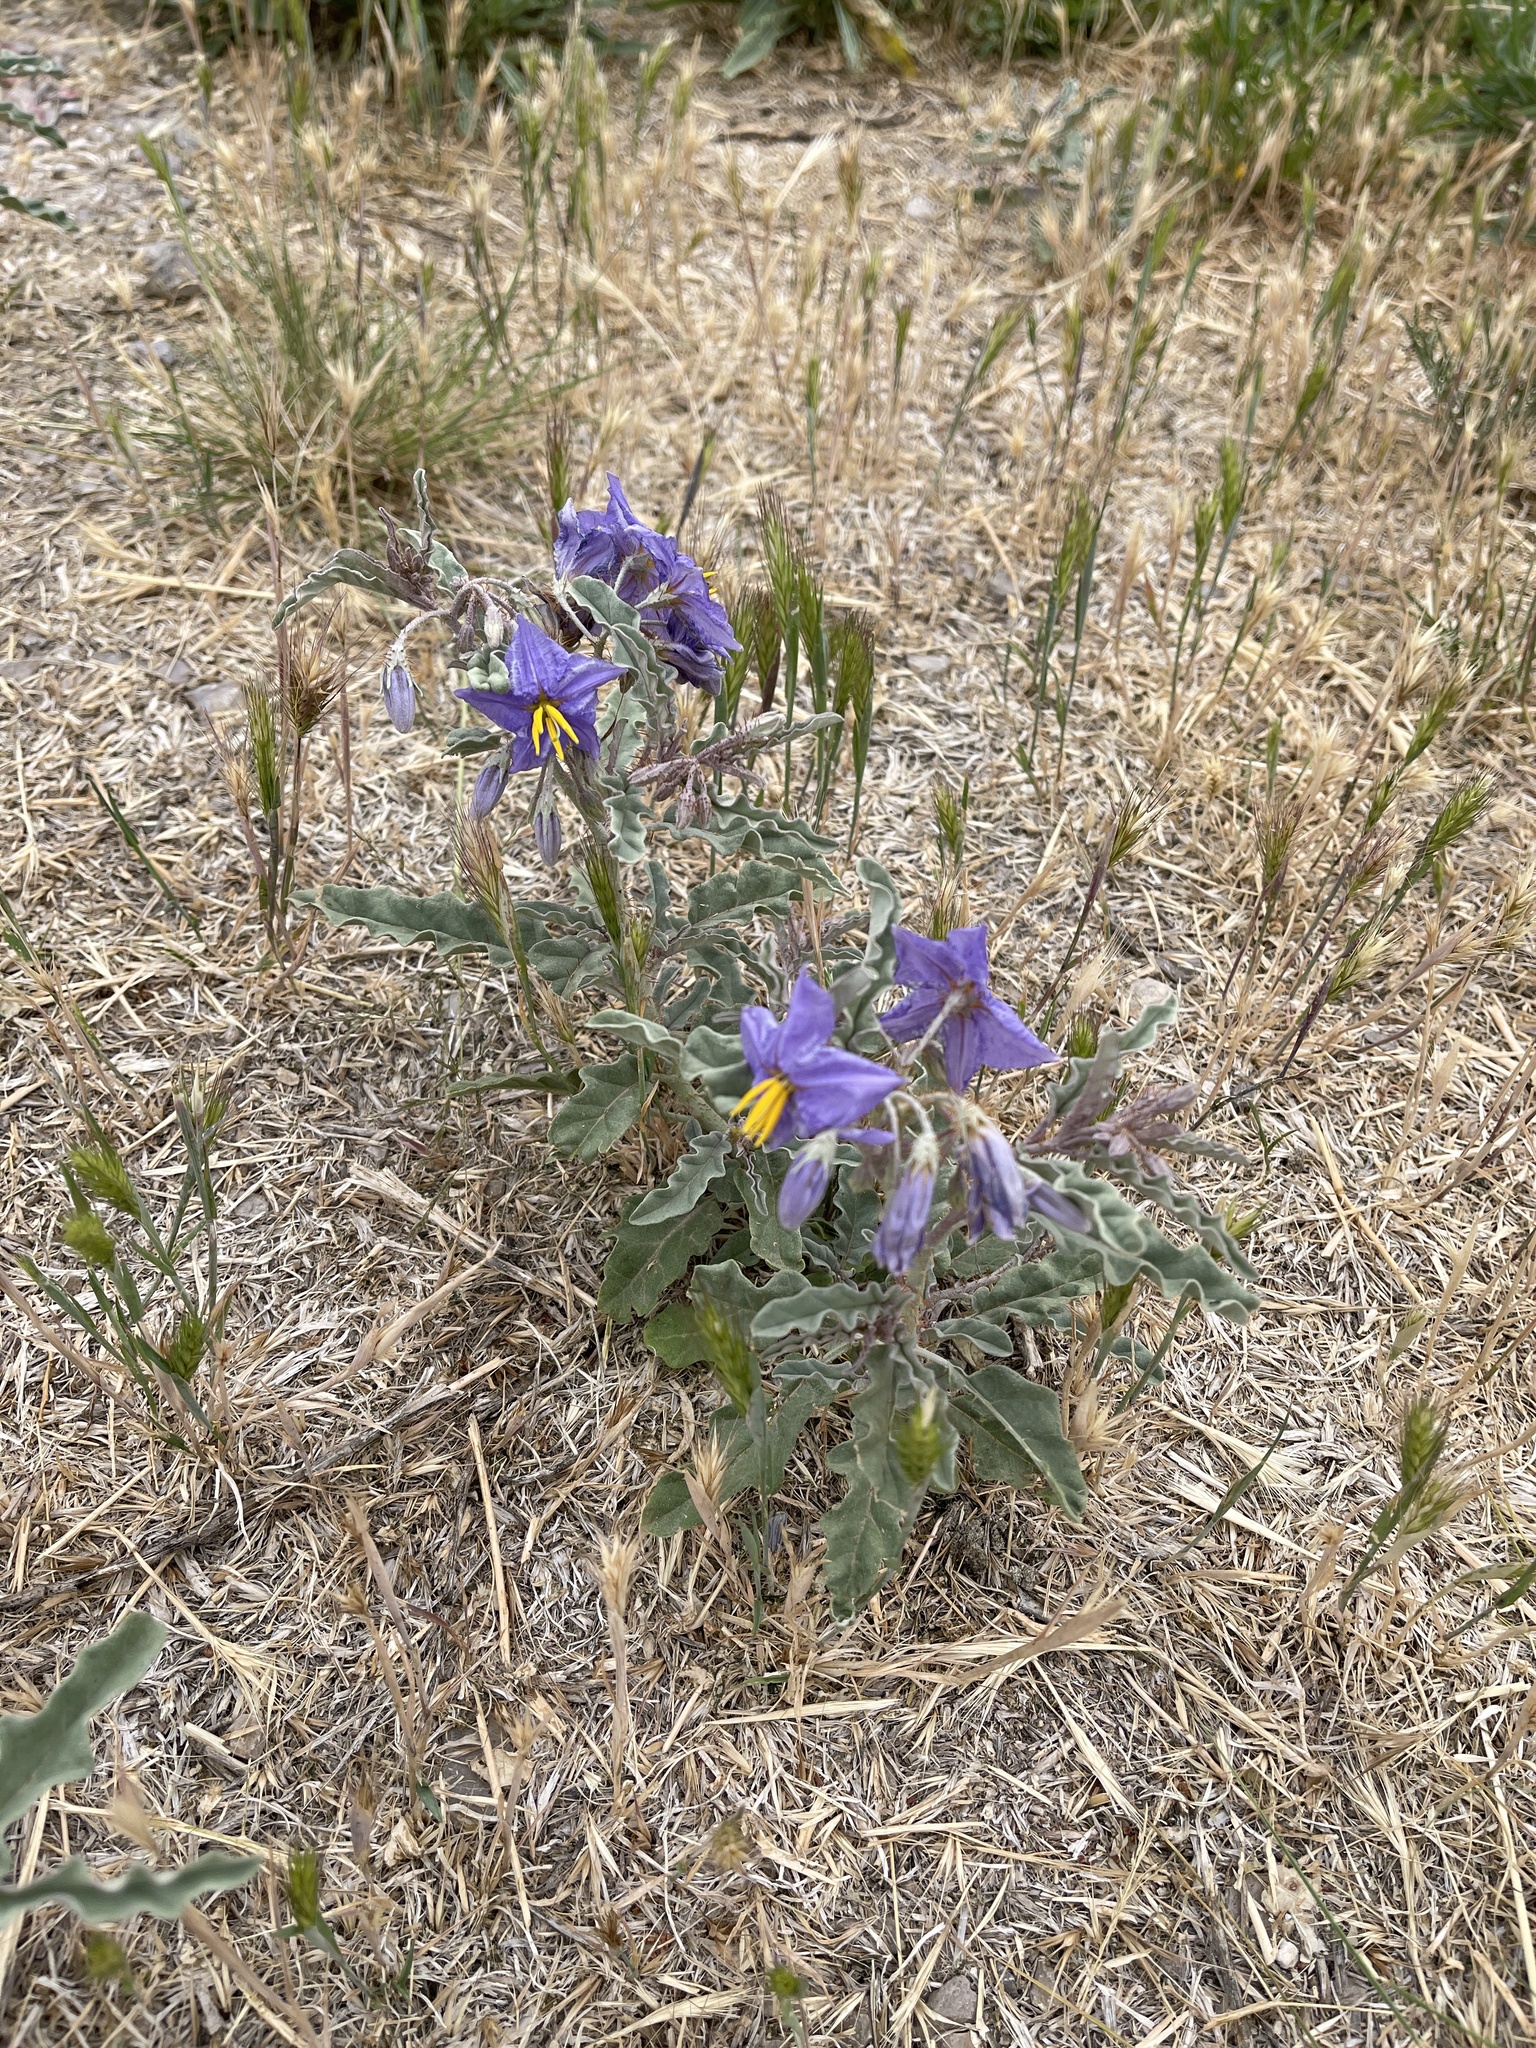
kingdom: Plantae
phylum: Tracheophyta
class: Magnoliopsida
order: Solanales
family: Solanaceae
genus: Solanum
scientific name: Solanum elaeagnifolium
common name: Silverleaf nightshade
